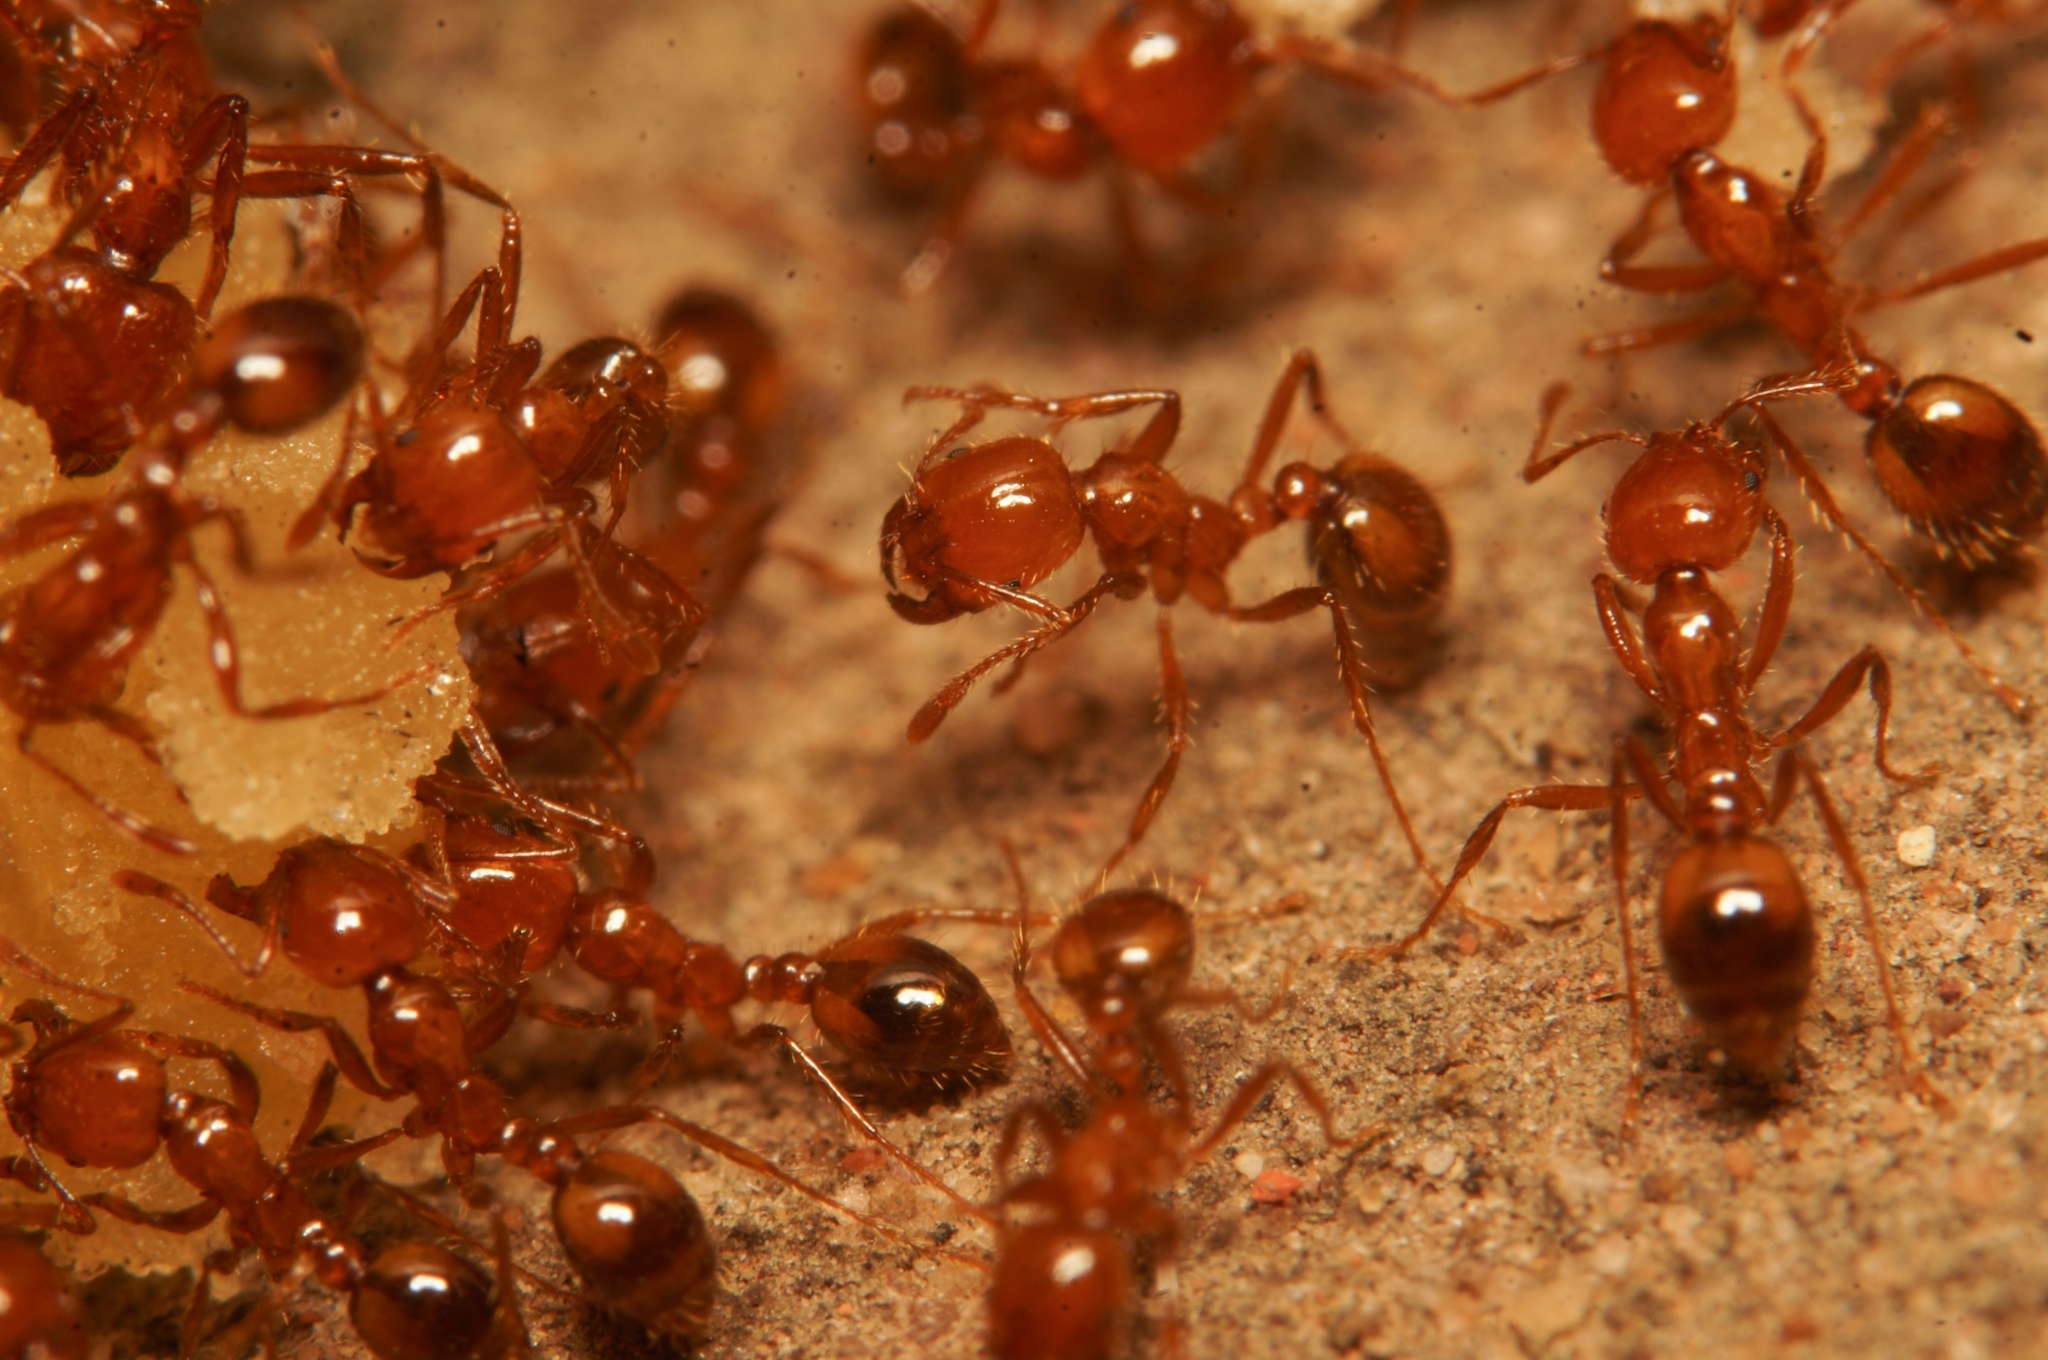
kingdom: Animalia
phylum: Arthropoda
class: Insecta
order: Hymenoptera
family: Formicidae
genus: Solenopsis
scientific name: Solenopsis geminata
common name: Tropical fire ant
